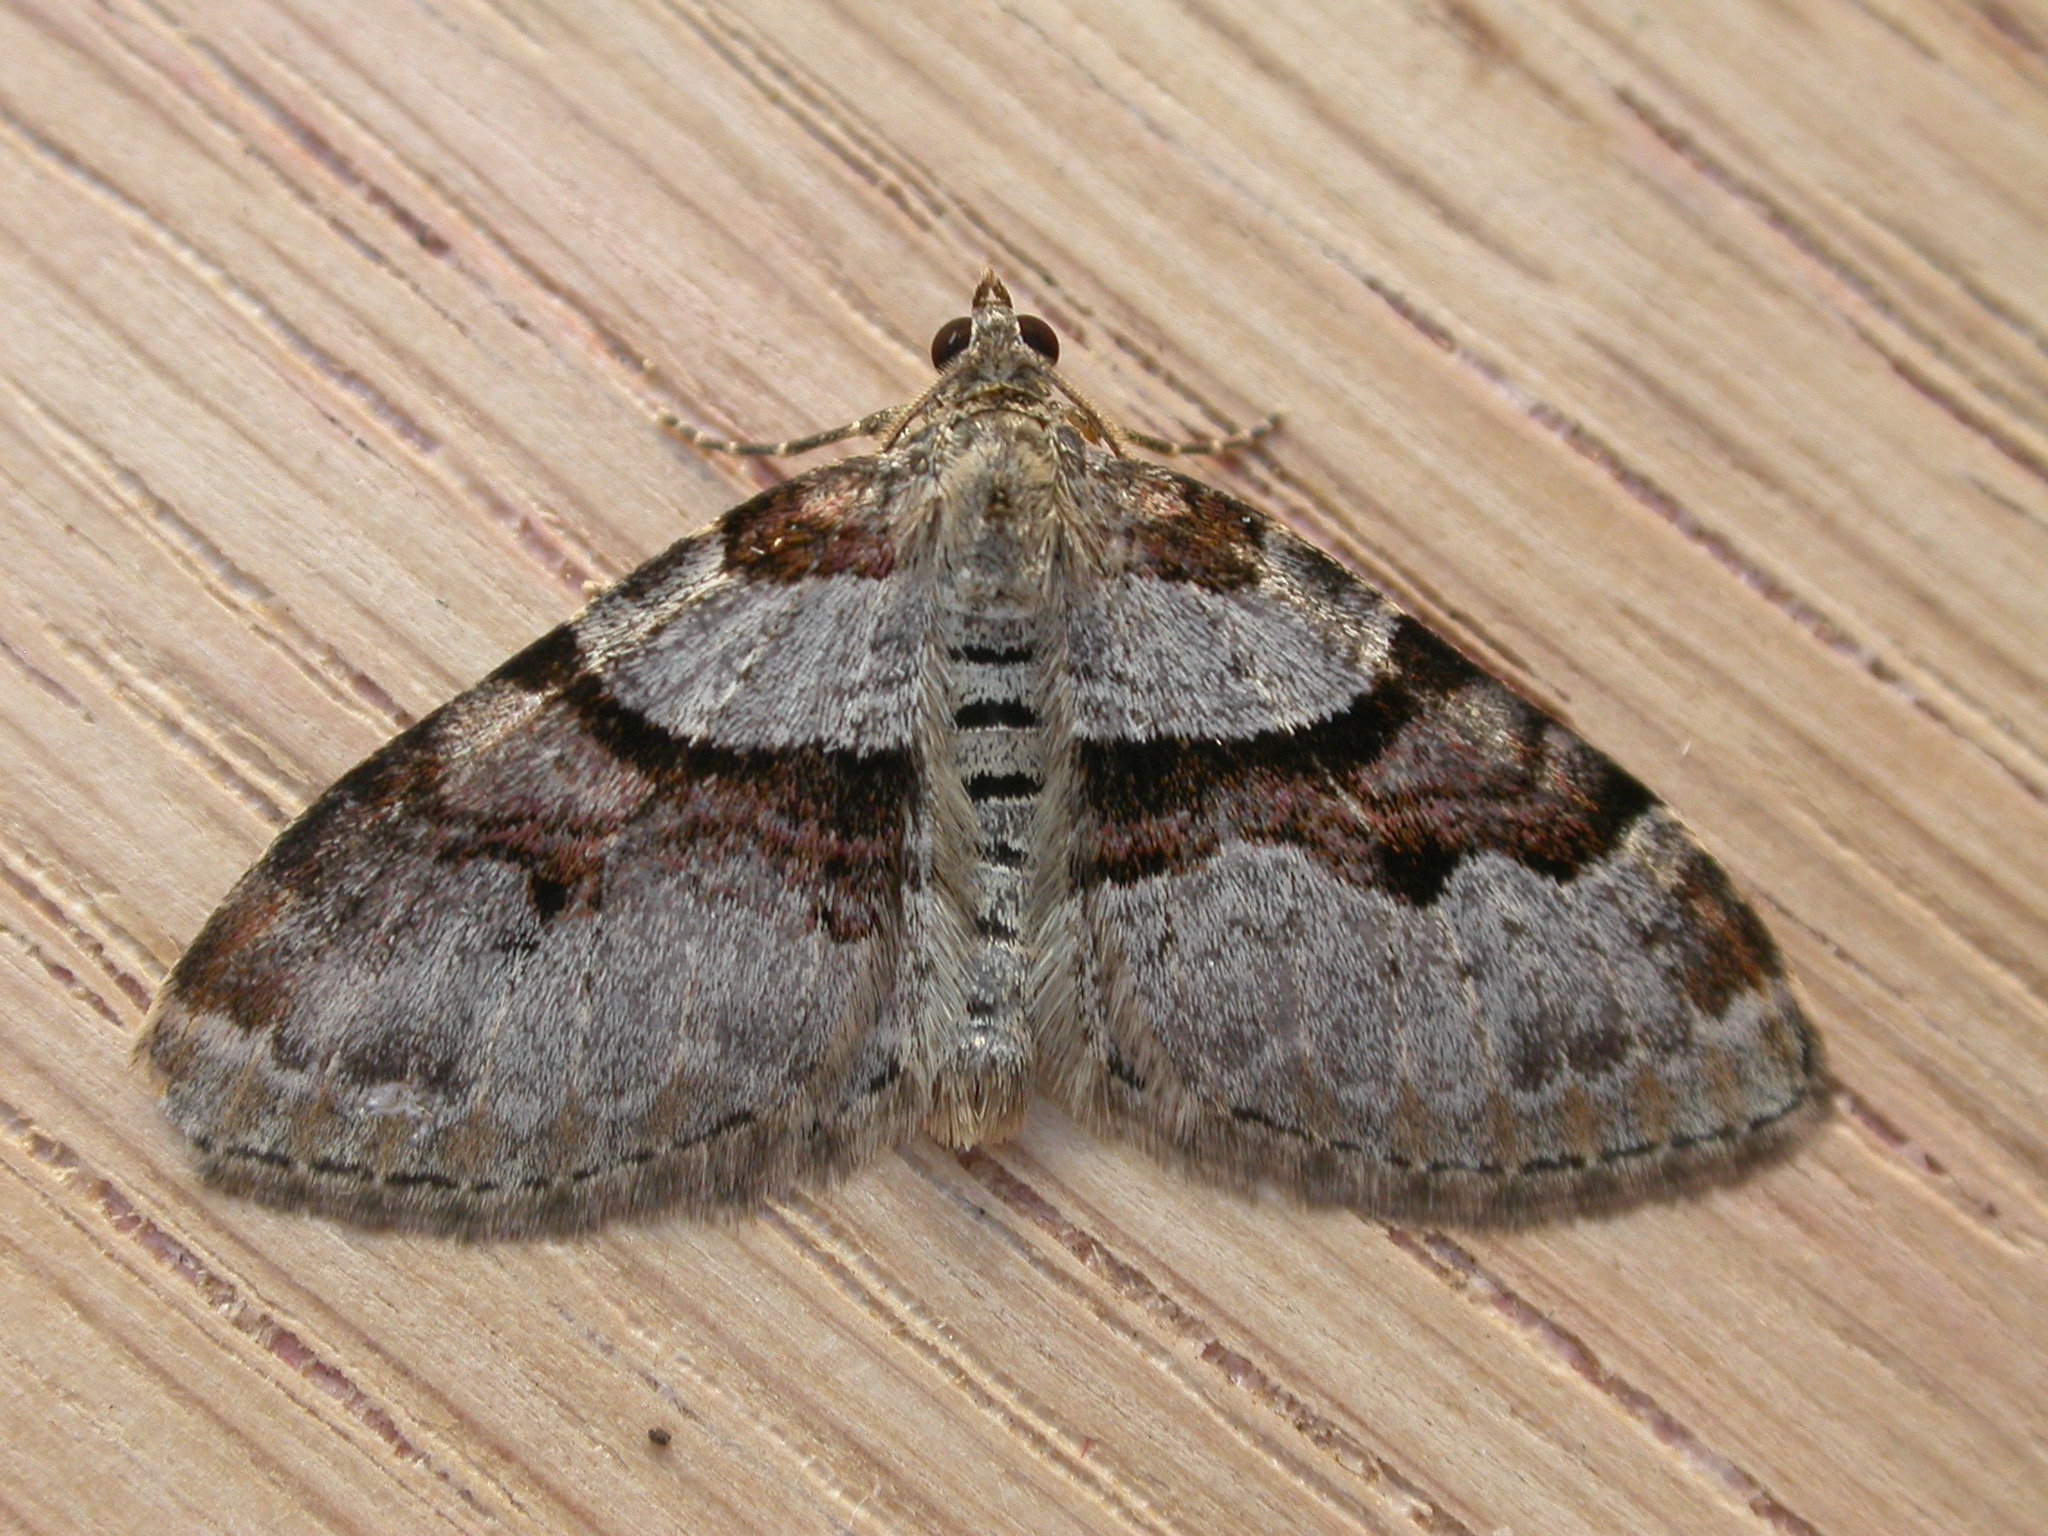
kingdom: Animalia
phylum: Arthropoda
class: Insecta
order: Lepidoptera
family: Geometridae
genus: Xanthorhoe
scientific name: Xanthorhoe designata
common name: Flame carpet
